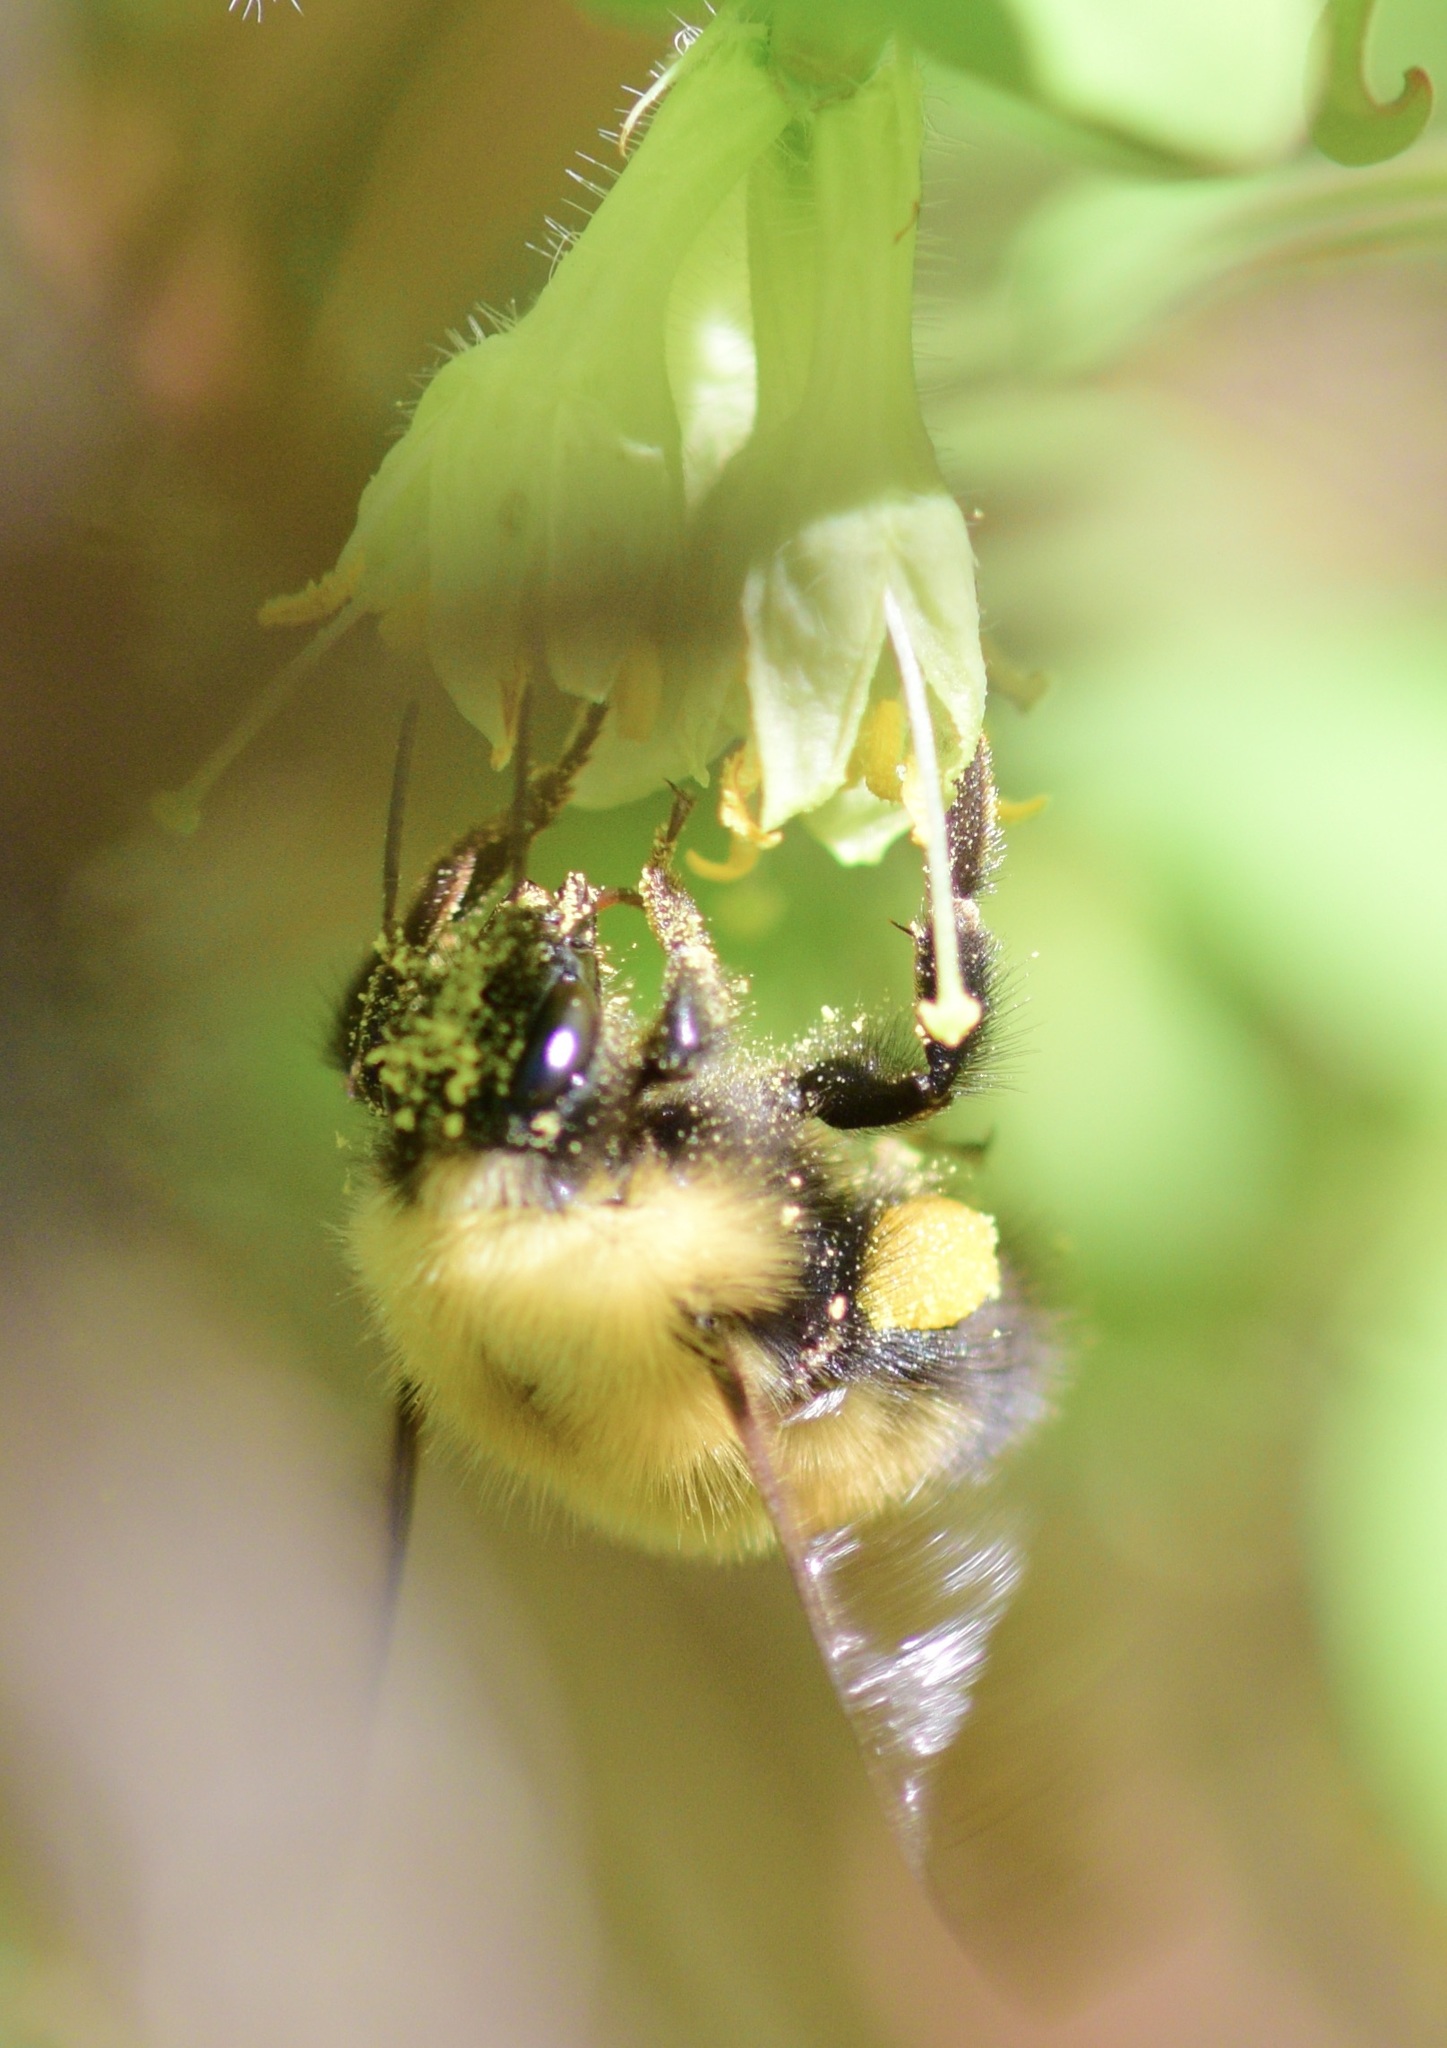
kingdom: Animalia
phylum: Arthropoda
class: Insecta
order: Hymenoptera
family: Apidae
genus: Bombus
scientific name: Bombus perplexus
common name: Confusing bumble bee
